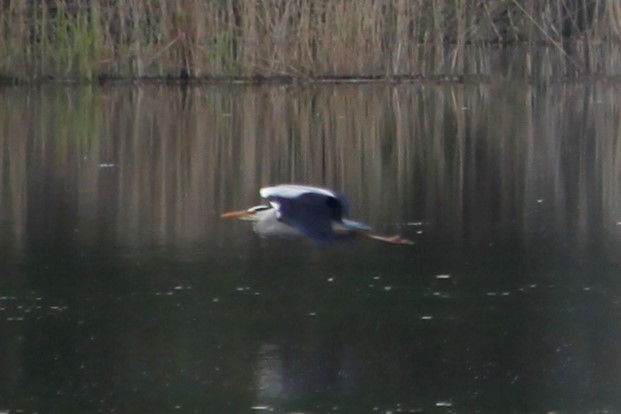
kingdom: Animalia
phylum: Chordata
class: Aves
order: Pelecaniformes
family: Ardeidae
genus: Ardea
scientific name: Ardea cinerea
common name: Grey heron
